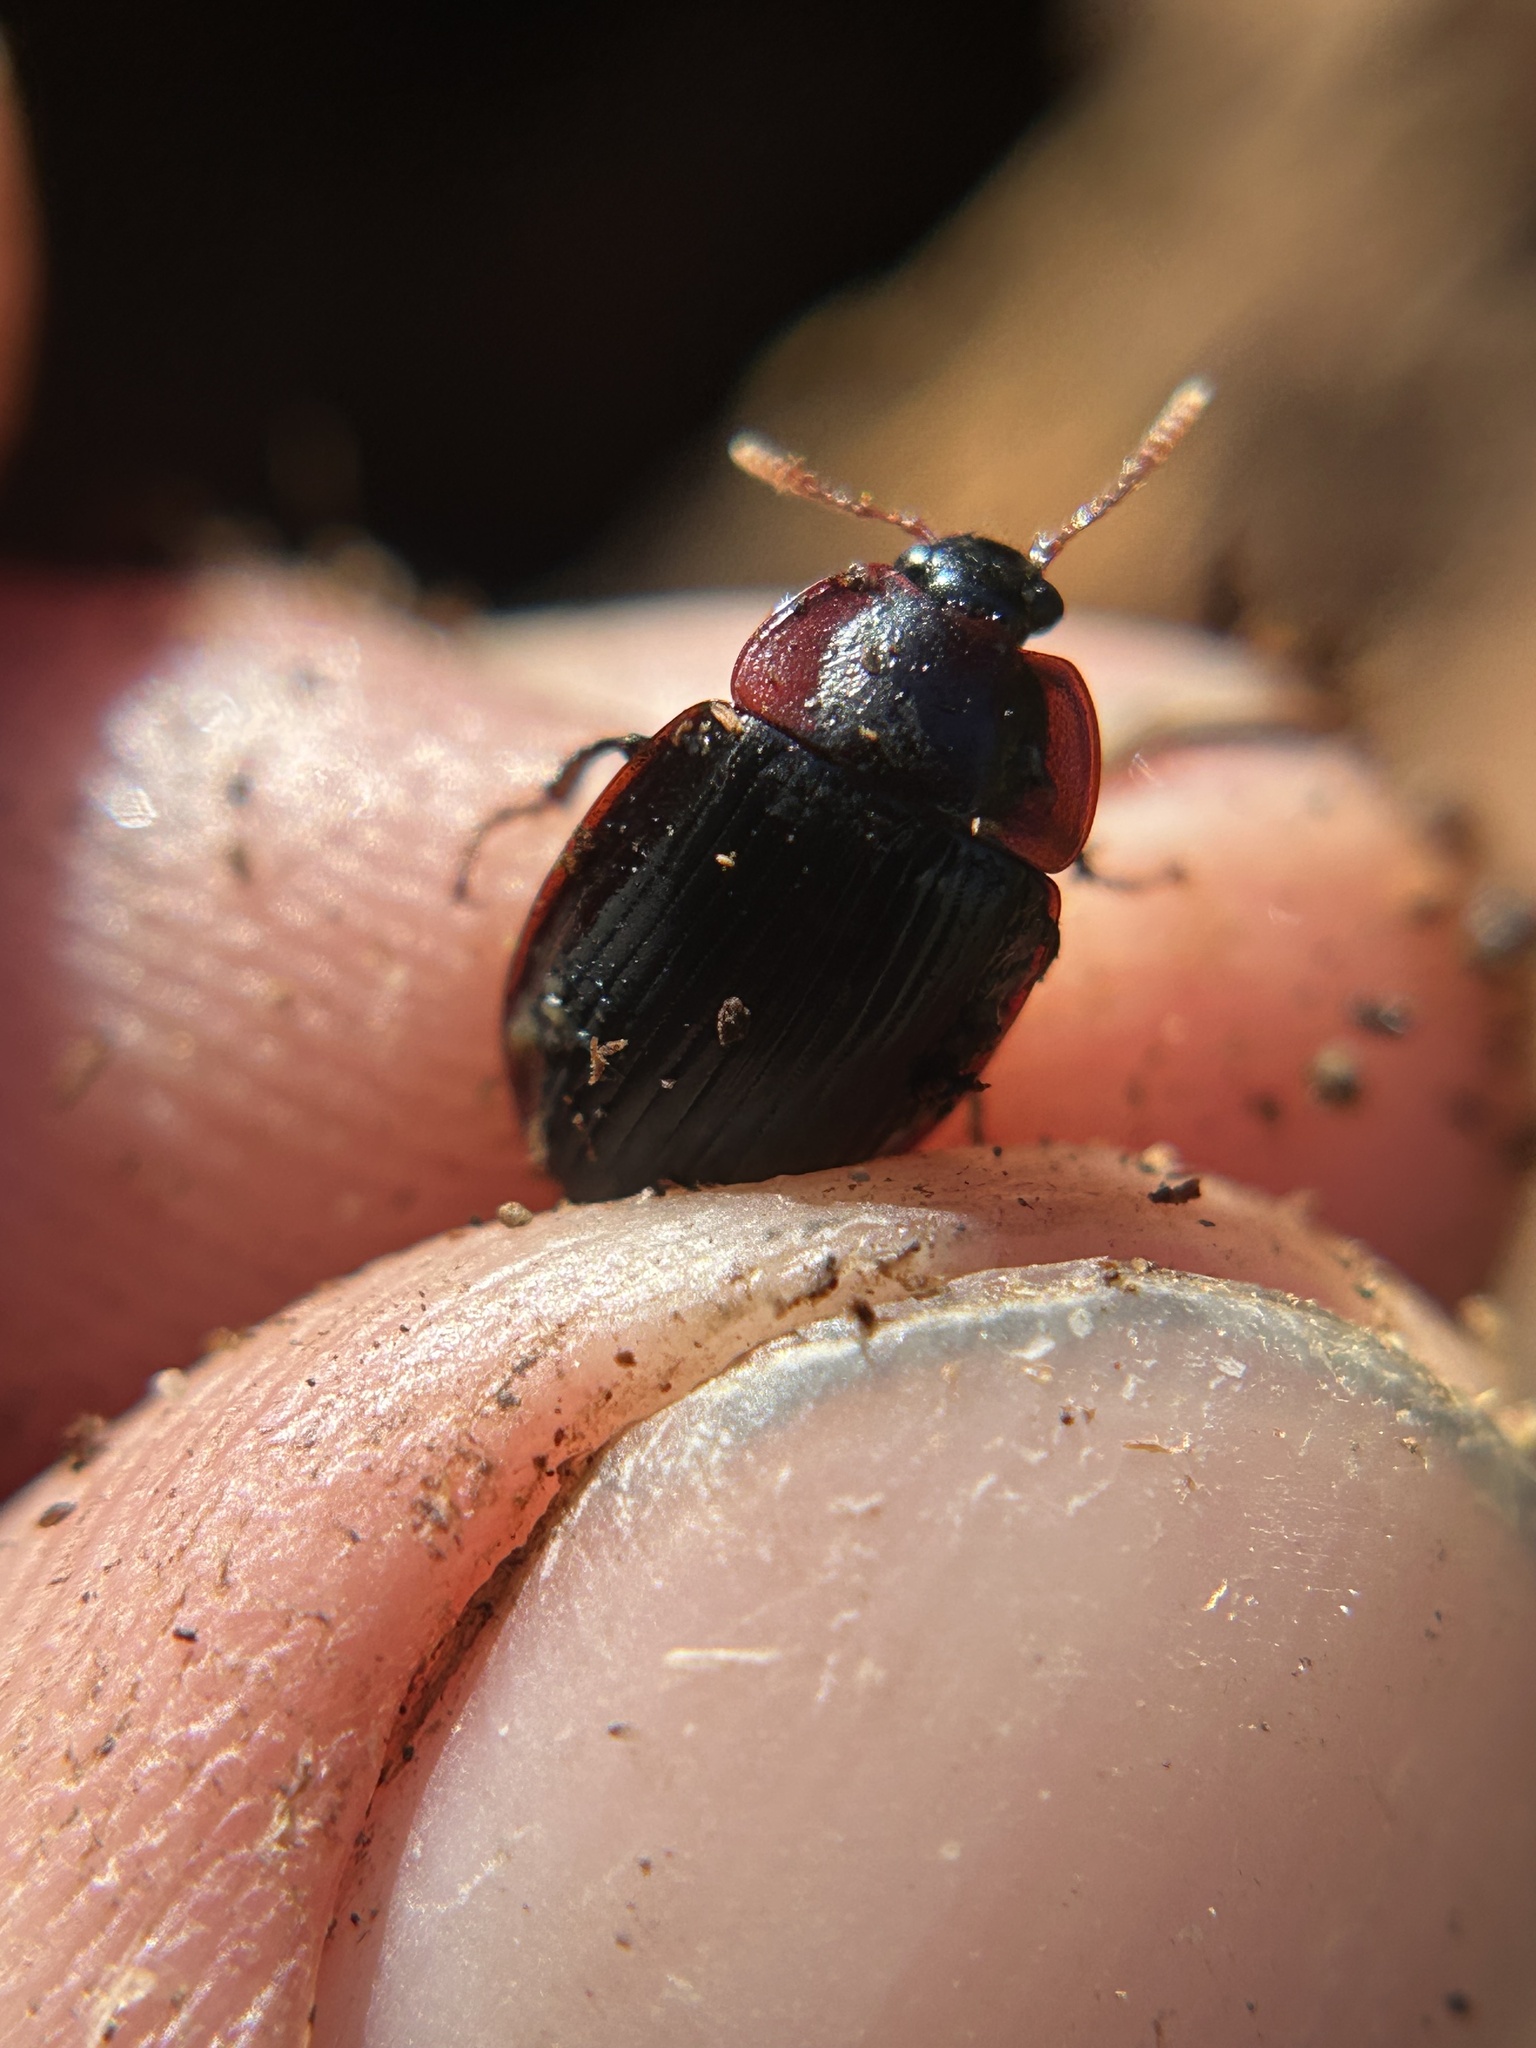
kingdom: Animalia
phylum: Arthropoda
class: Insecta
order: Coleoptera
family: Agyrtidae
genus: Necrophilus
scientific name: Necrophilus hydrophiloides
